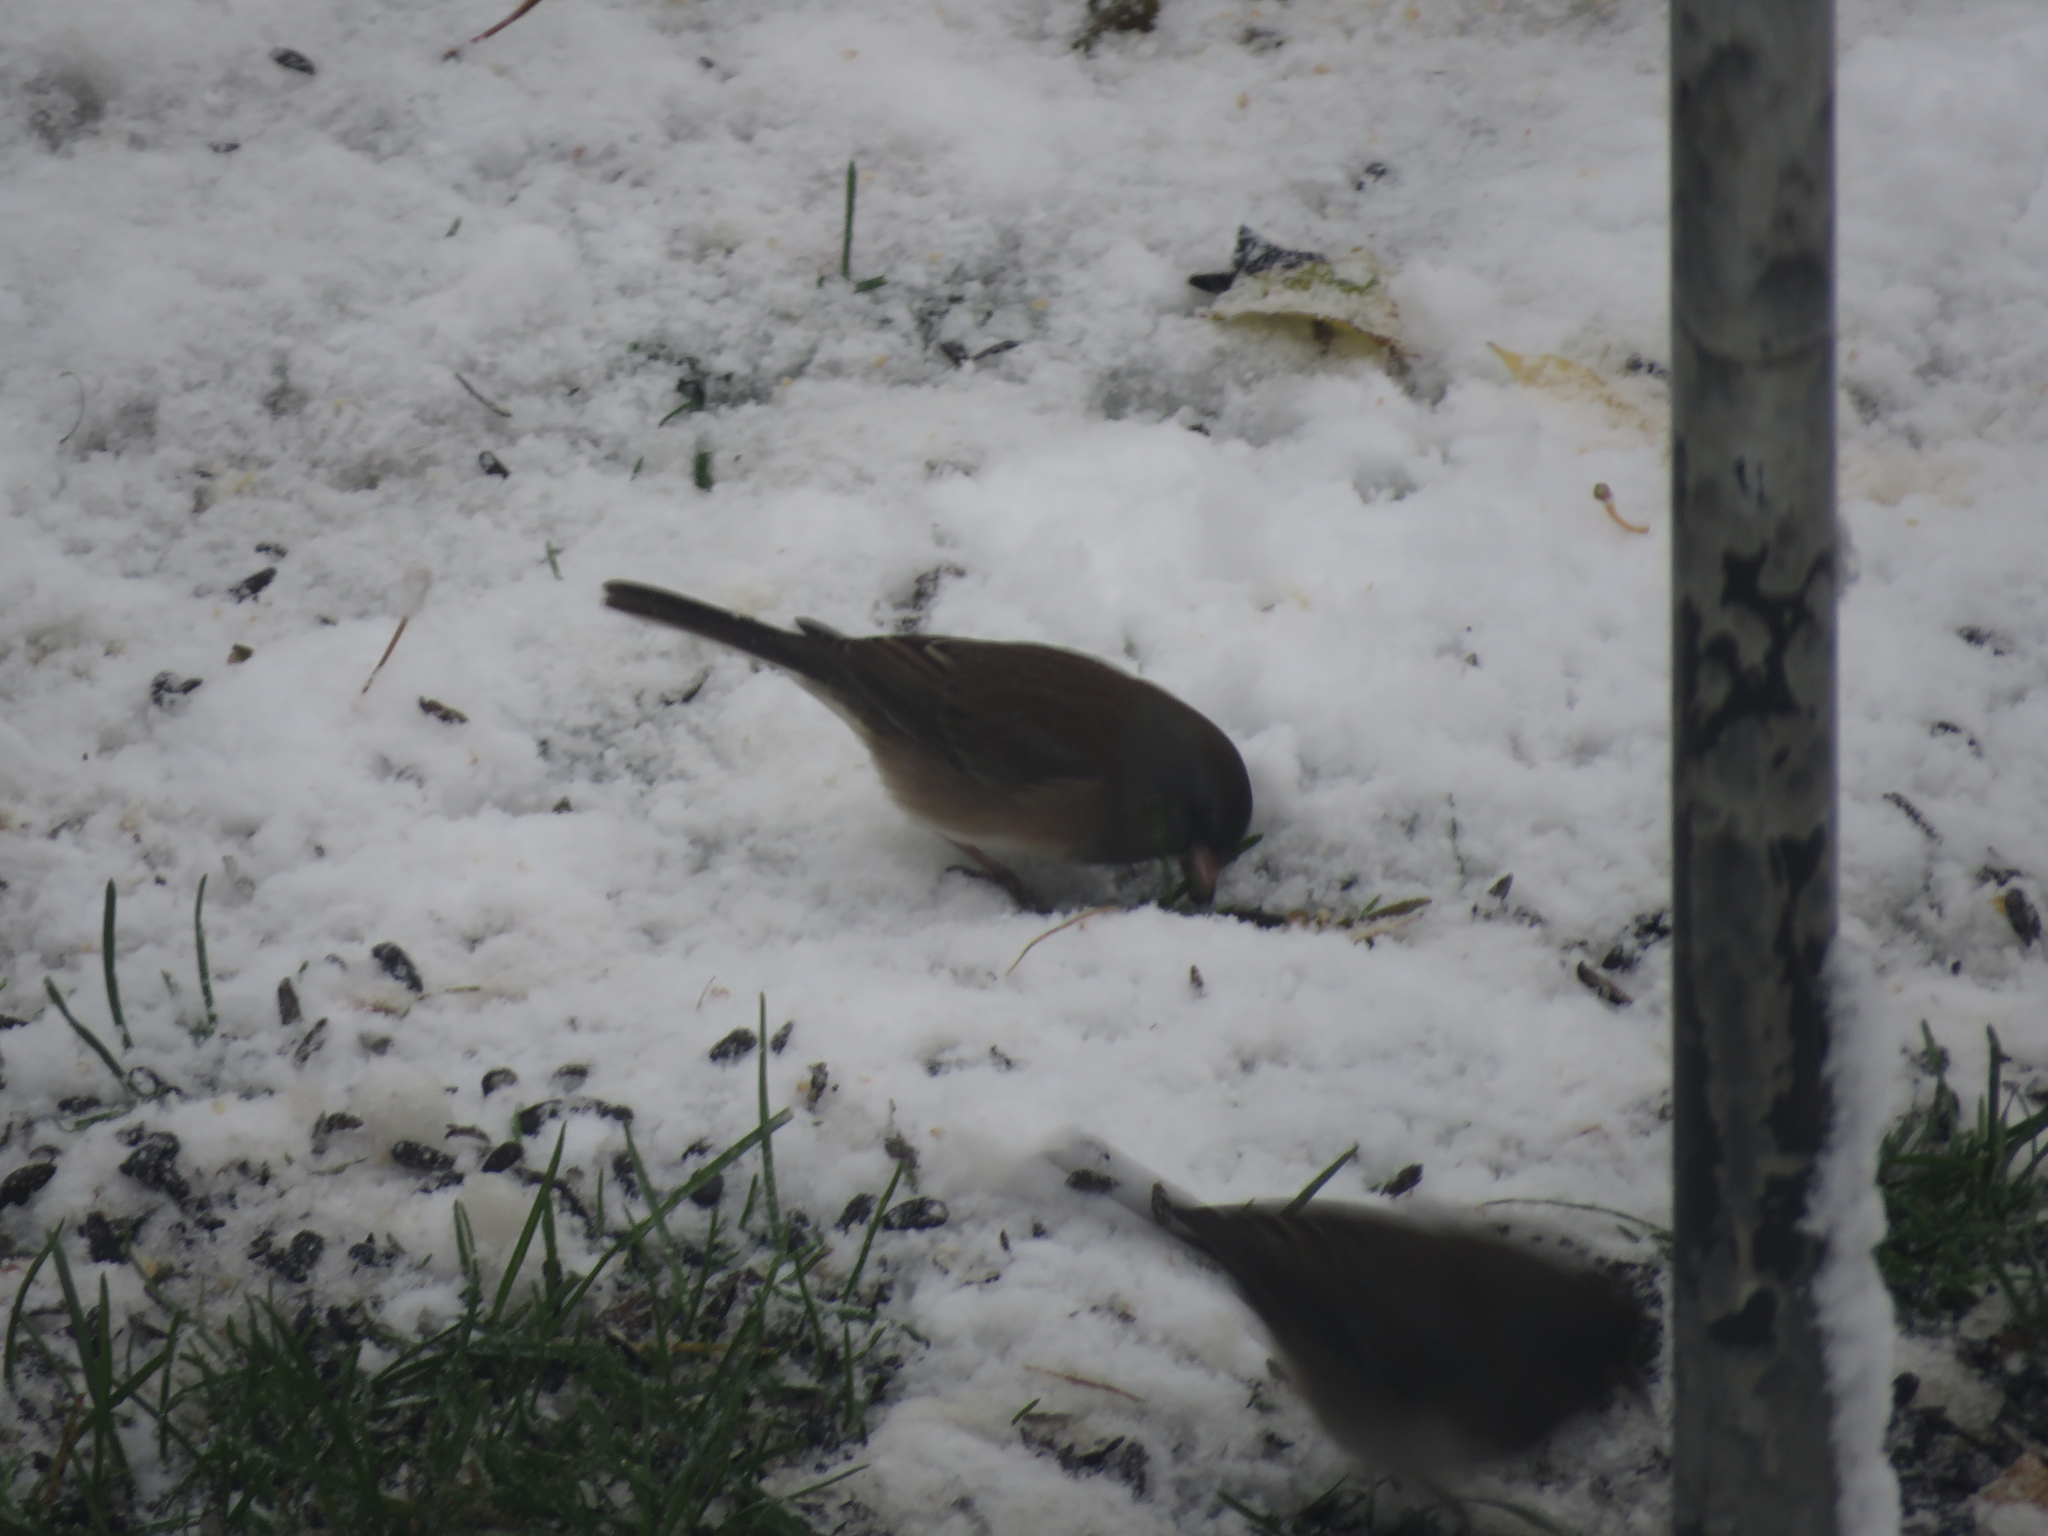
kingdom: Animalia
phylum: Chordata
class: Aves
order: Passeriformes
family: Passerellidae
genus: Junco
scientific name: Junco hyemalis
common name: Dark-eyed junco
